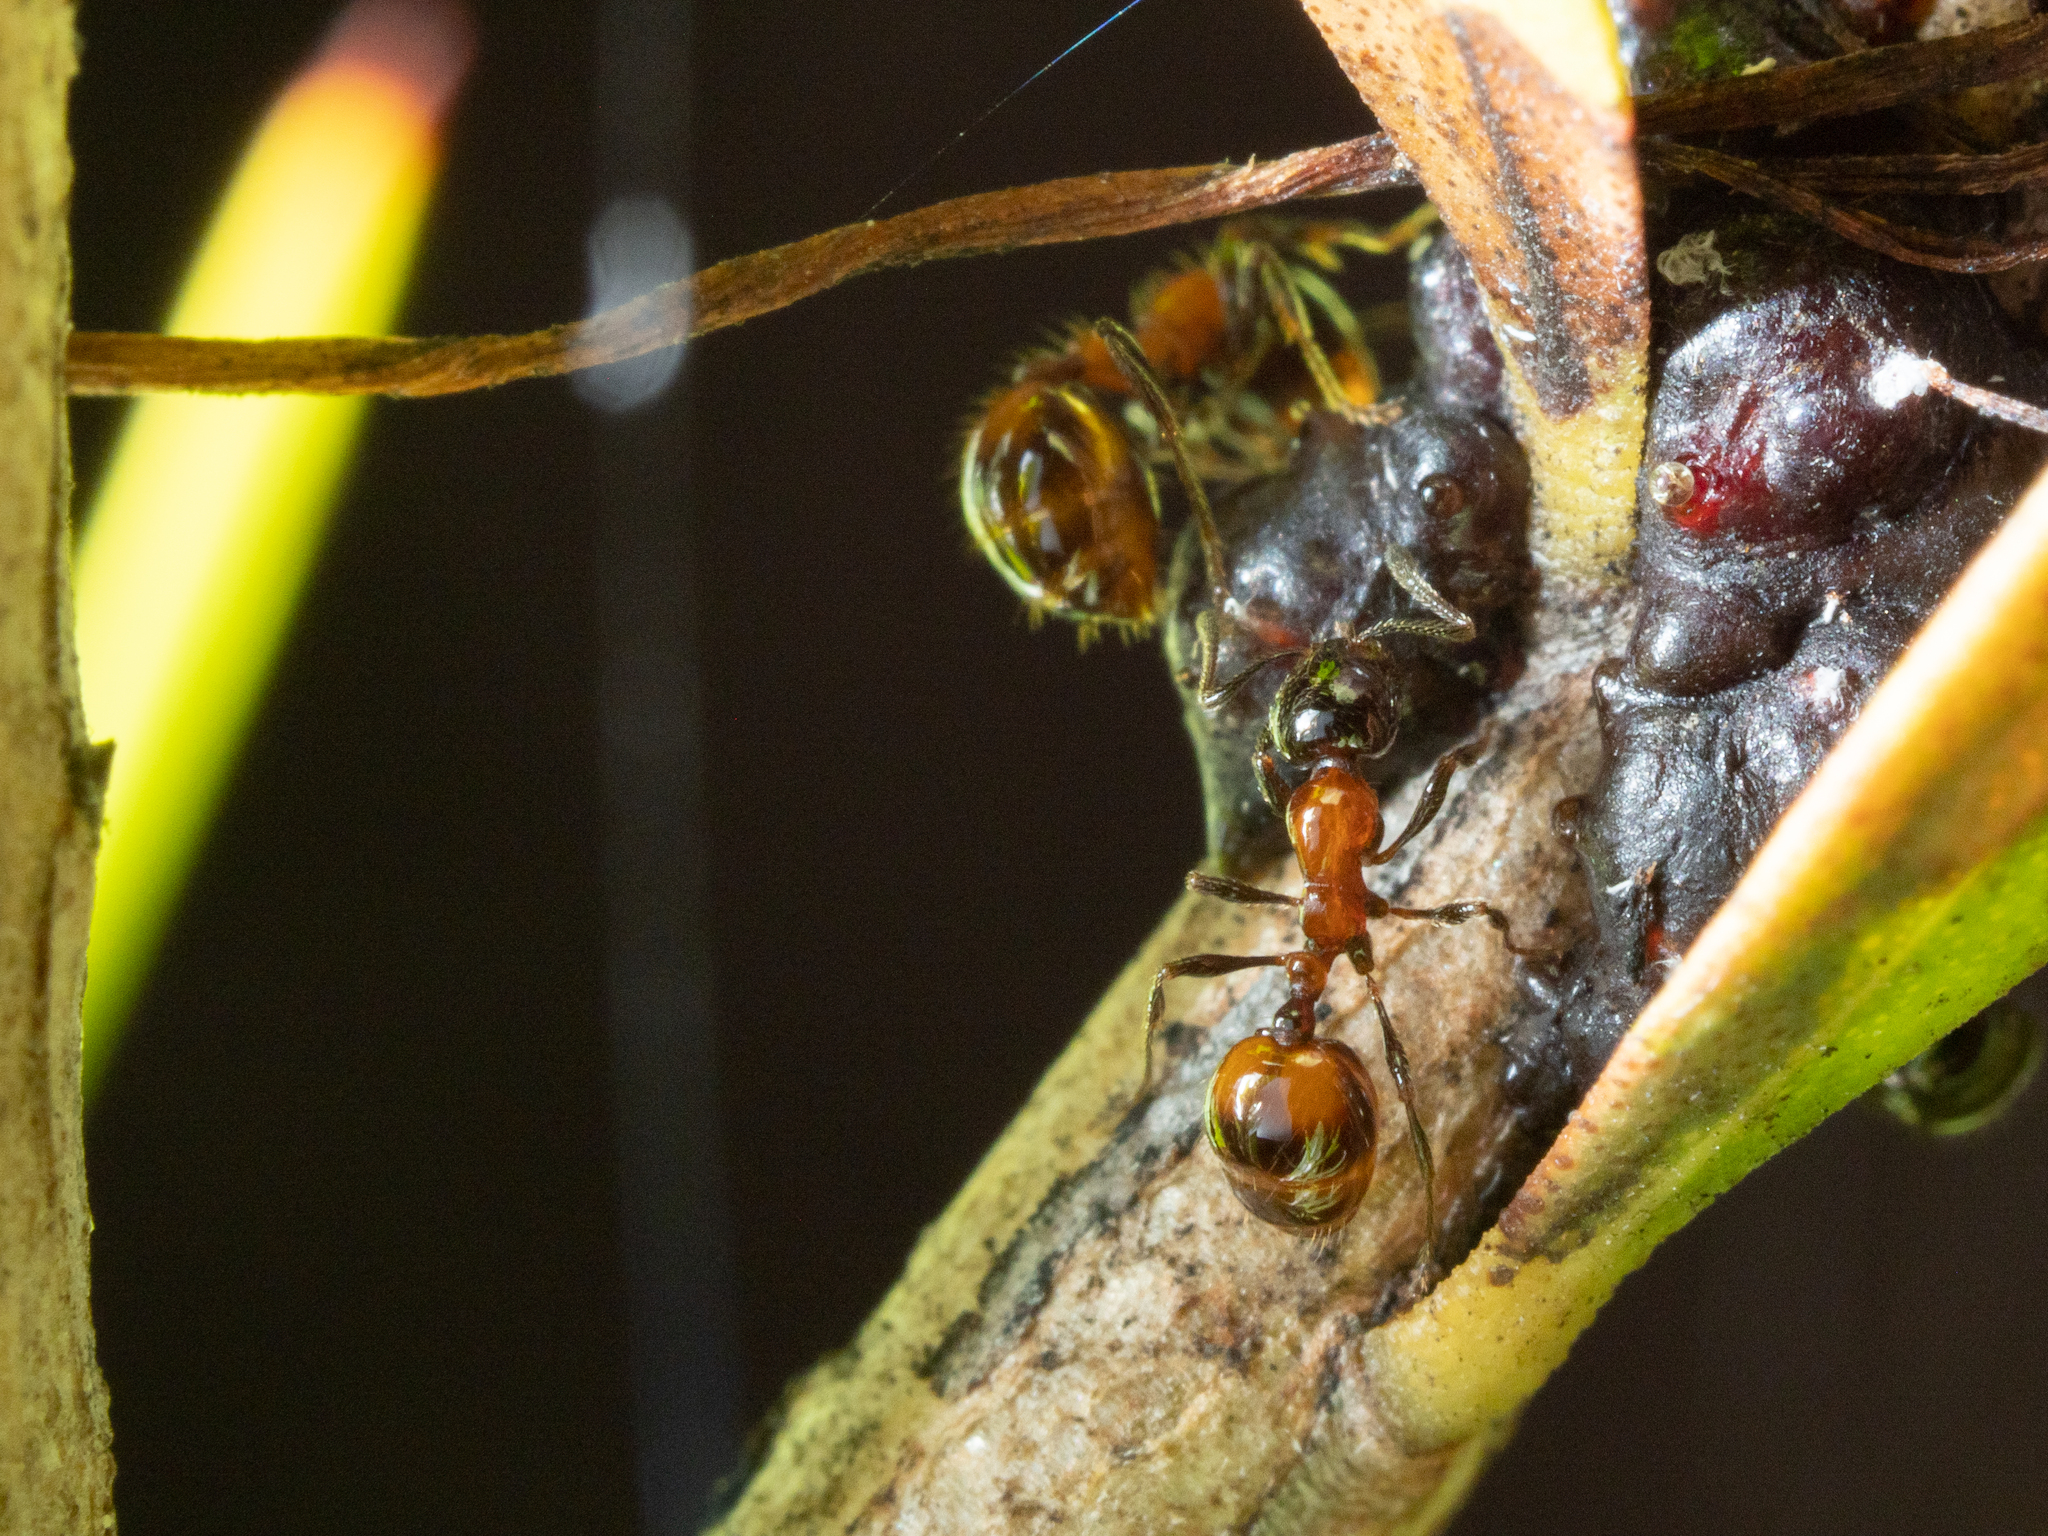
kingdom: Animalia
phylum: Arthropoda
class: Insecta
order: Hymenoptera
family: Formicidae
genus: Chelaner
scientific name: Chelaner
